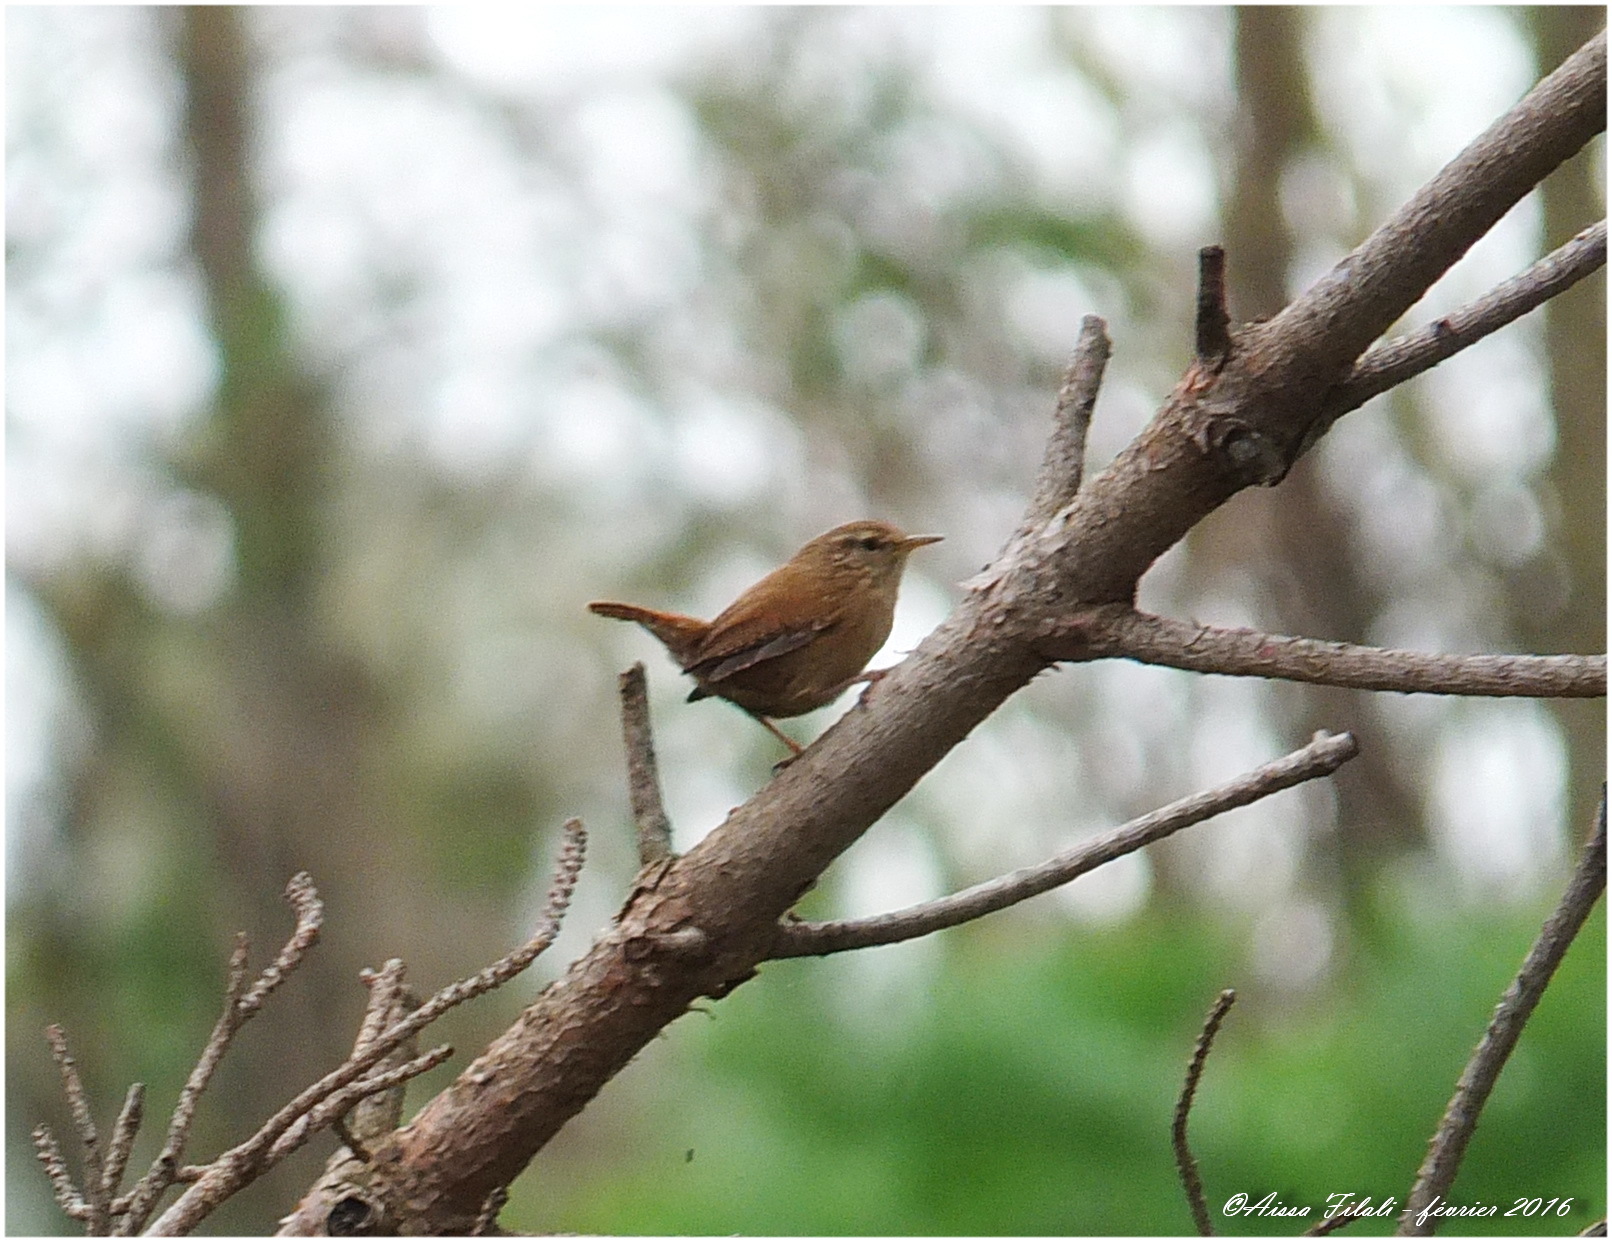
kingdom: Animalia
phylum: Chordata
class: Aves
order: Passeriformes
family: Troglodytidae
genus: Troglodytes
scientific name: Troglodytes troglodytes
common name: Eurasian wren
